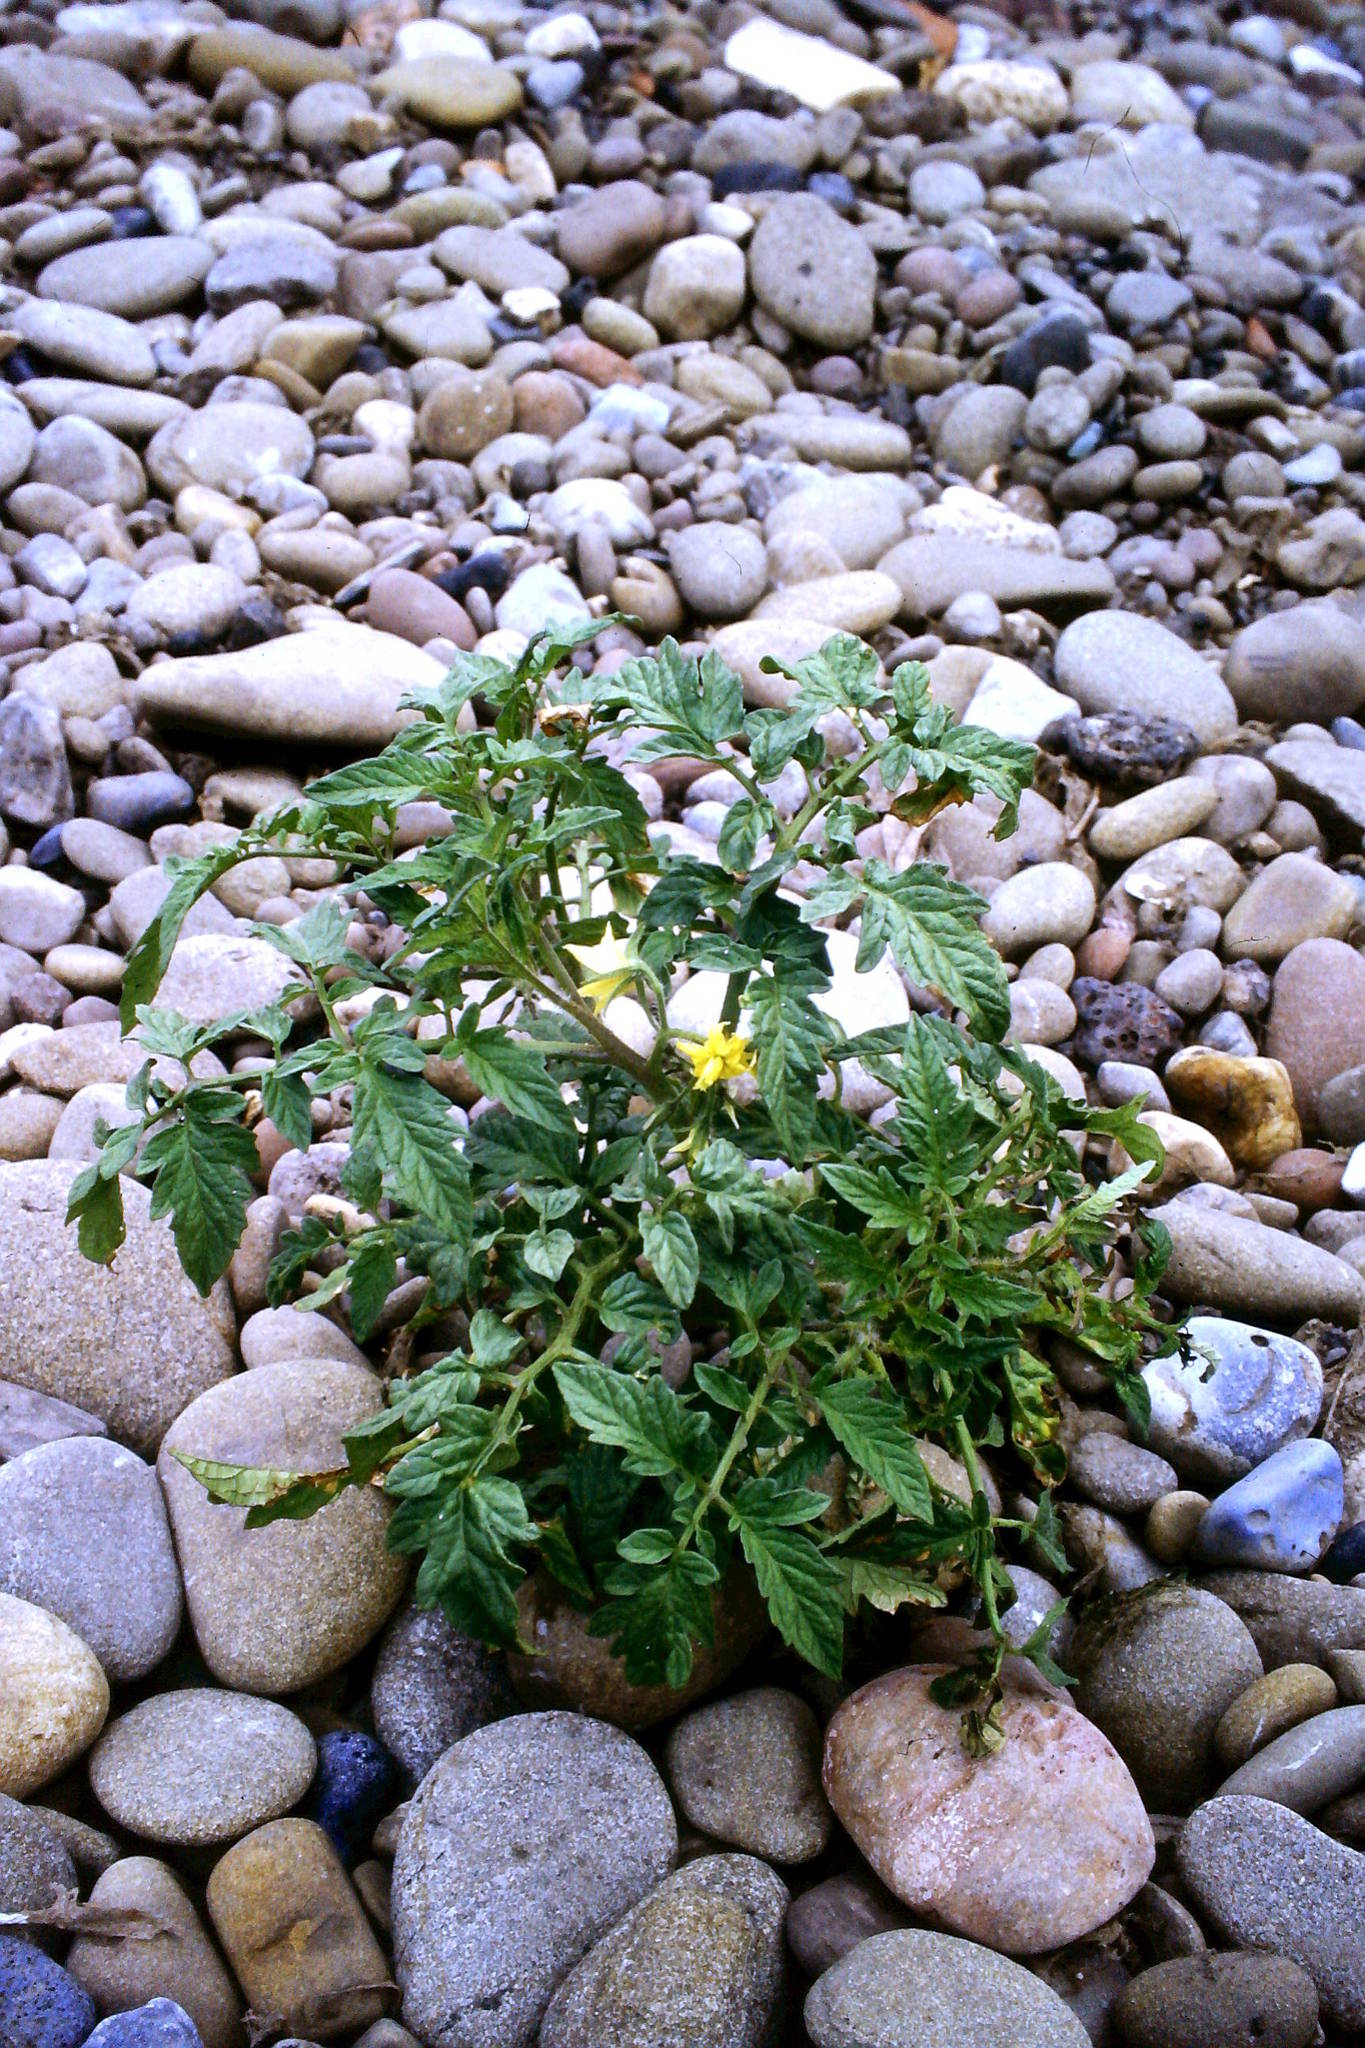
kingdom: Plantae
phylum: Tracheophyta
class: Magnoliopsida
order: Solanales
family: Solanaceae
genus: Solanum
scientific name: Solanum lycopersicum
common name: Garden tomato
